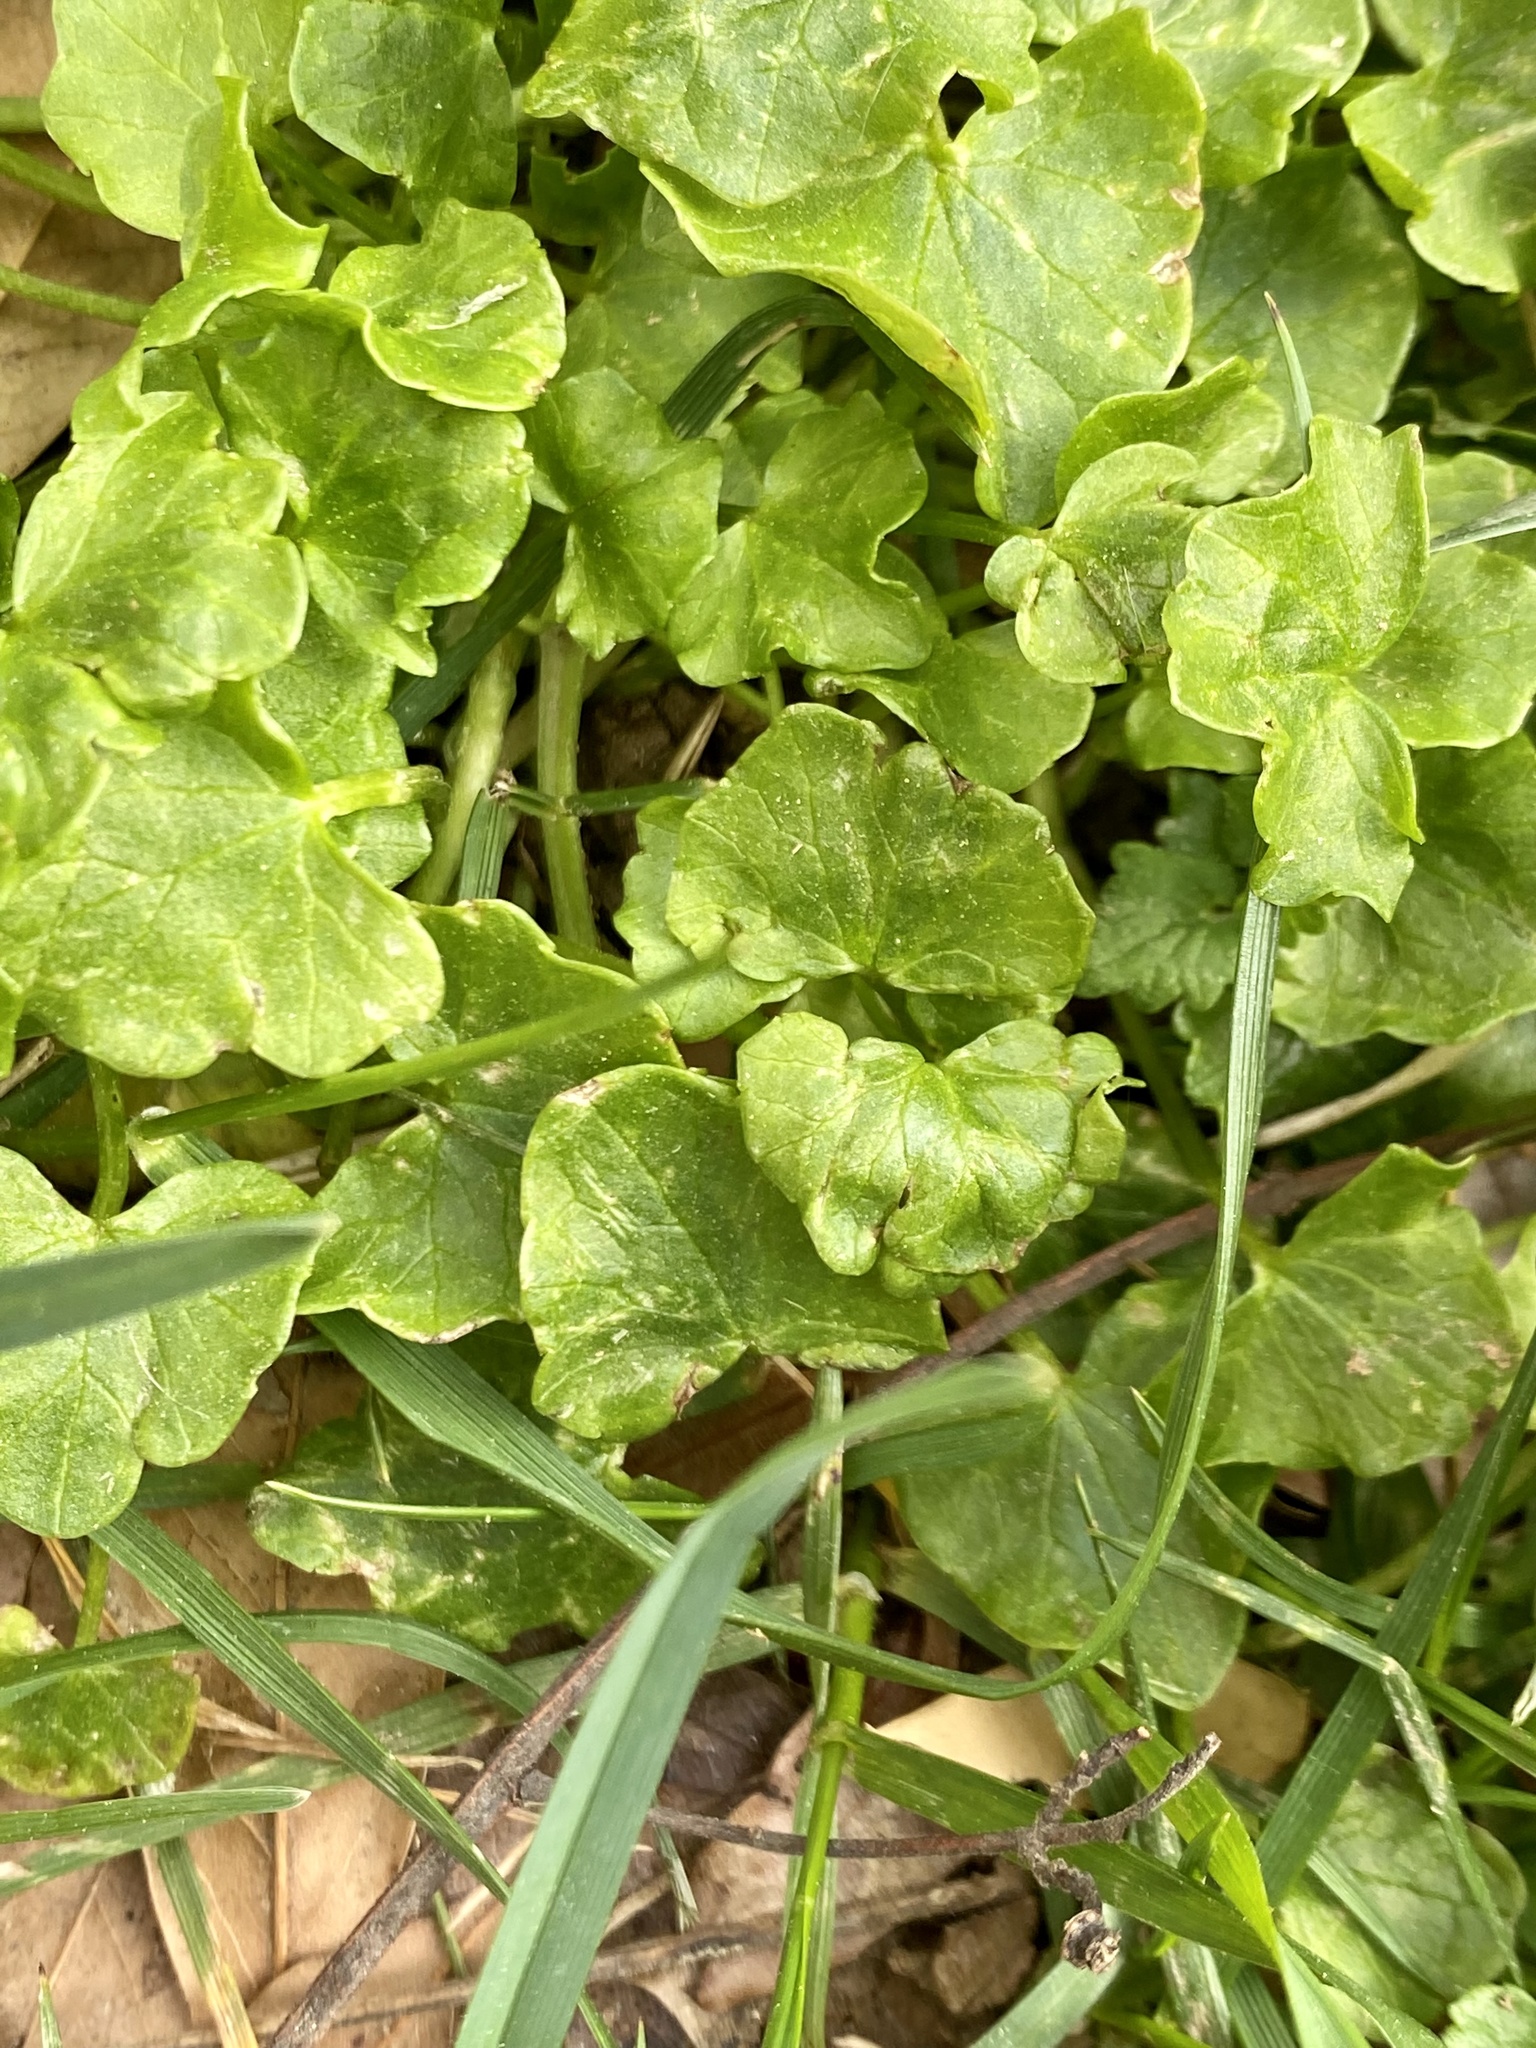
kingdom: Plantae
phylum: Tracheophyta
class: Magnoliopsida
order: Ranunculales
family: Ranunculaceae
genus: Ficaria
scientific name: Ficaria verna
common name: Lesser celandine
